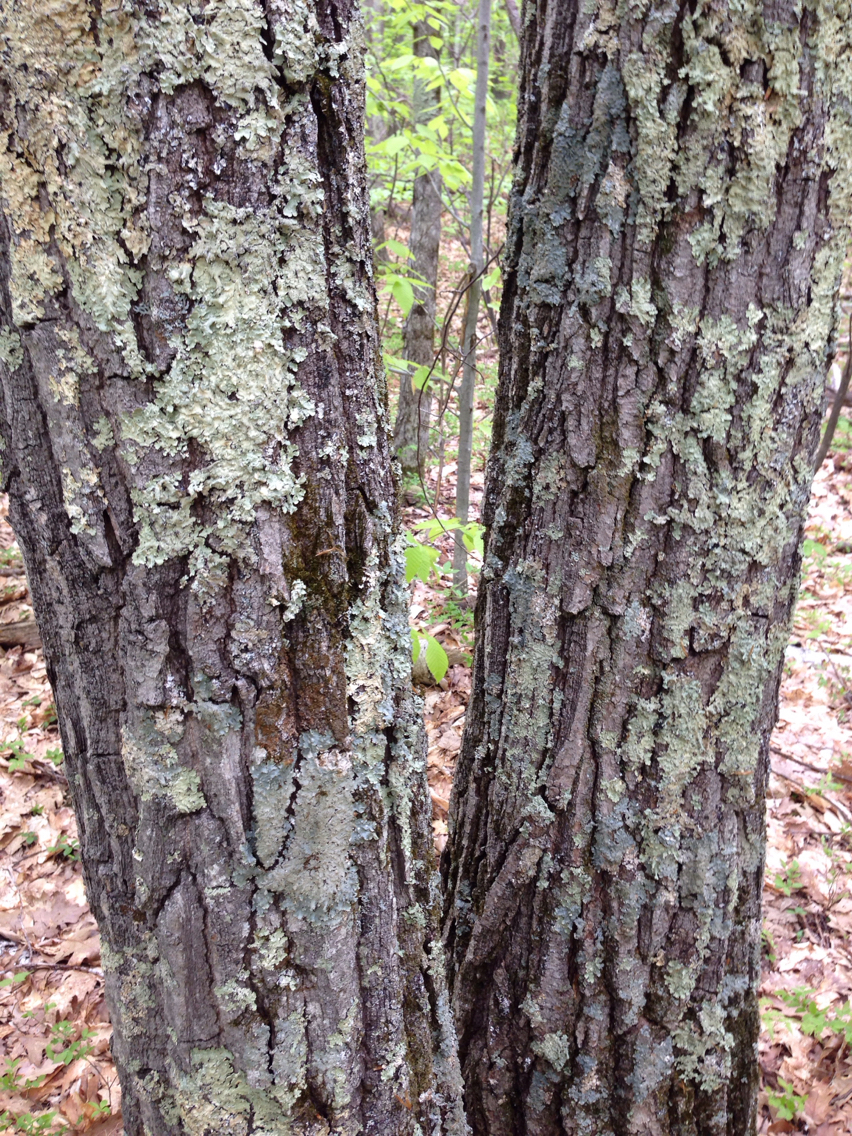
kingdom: Plantae
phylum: Tracheophyta
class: Magnoliopsida
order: Fagales
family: Fagaceae
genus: Quercus
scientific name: Quercus montana
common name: Chestnut oak
